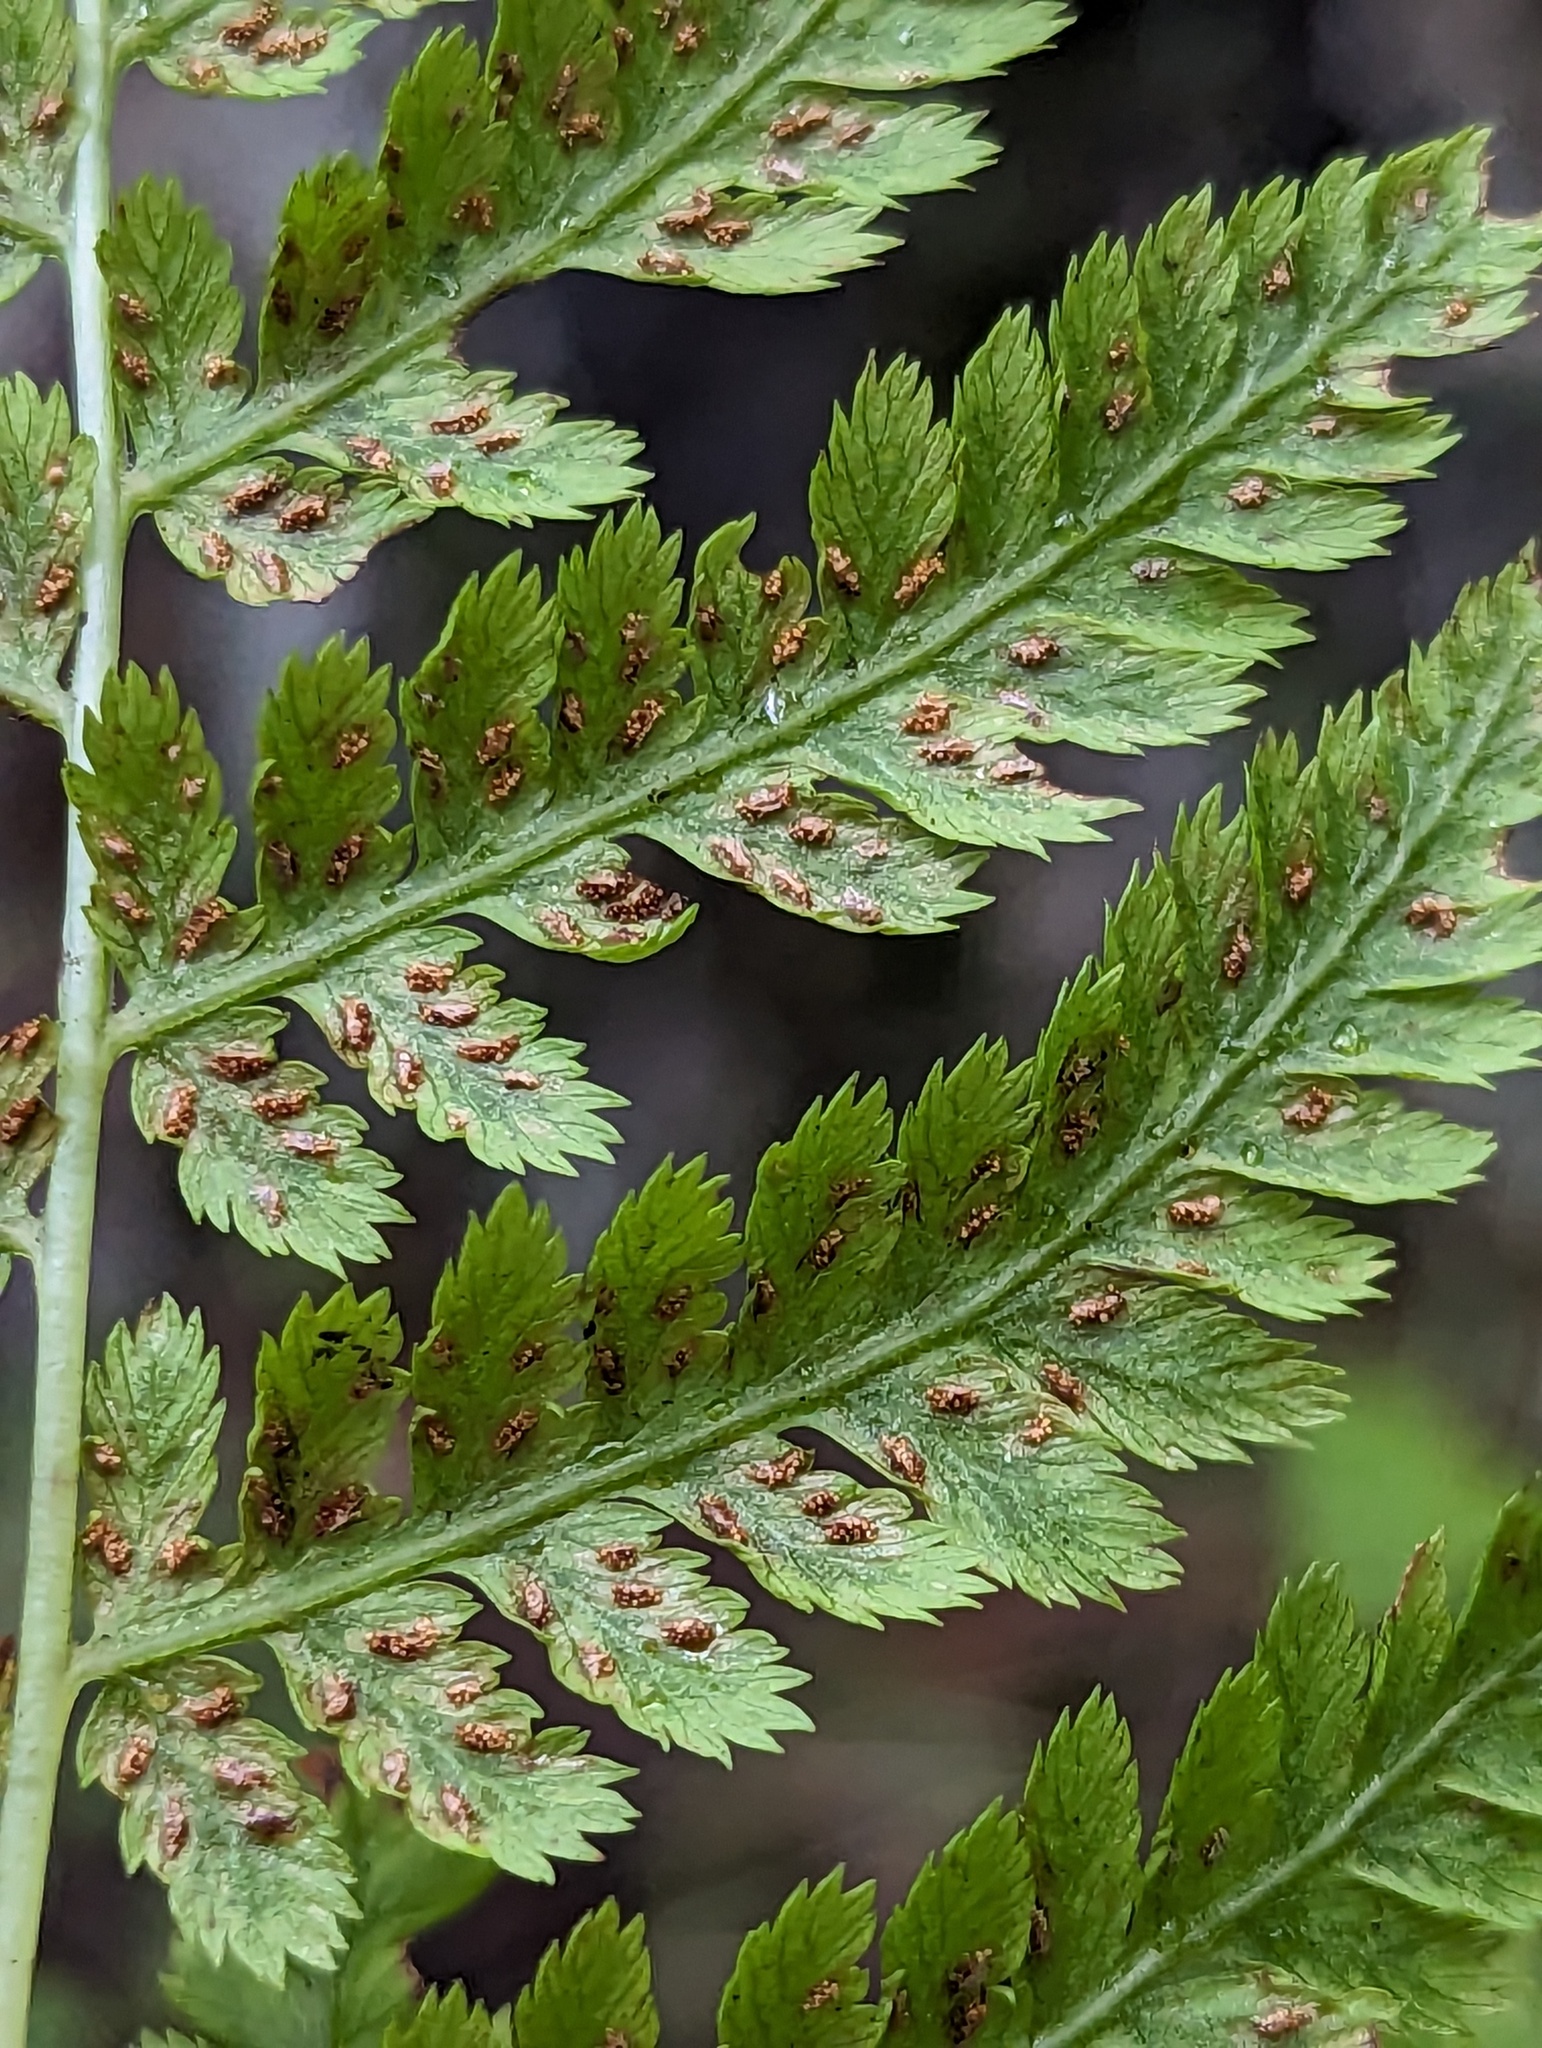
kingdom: Plantae
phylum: Tracheophyta
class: Polypodiopsida
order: Polypodiales
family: Athyriaceae
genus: Athyrium
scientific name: Athyrium angustum
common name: Northern lady fern
